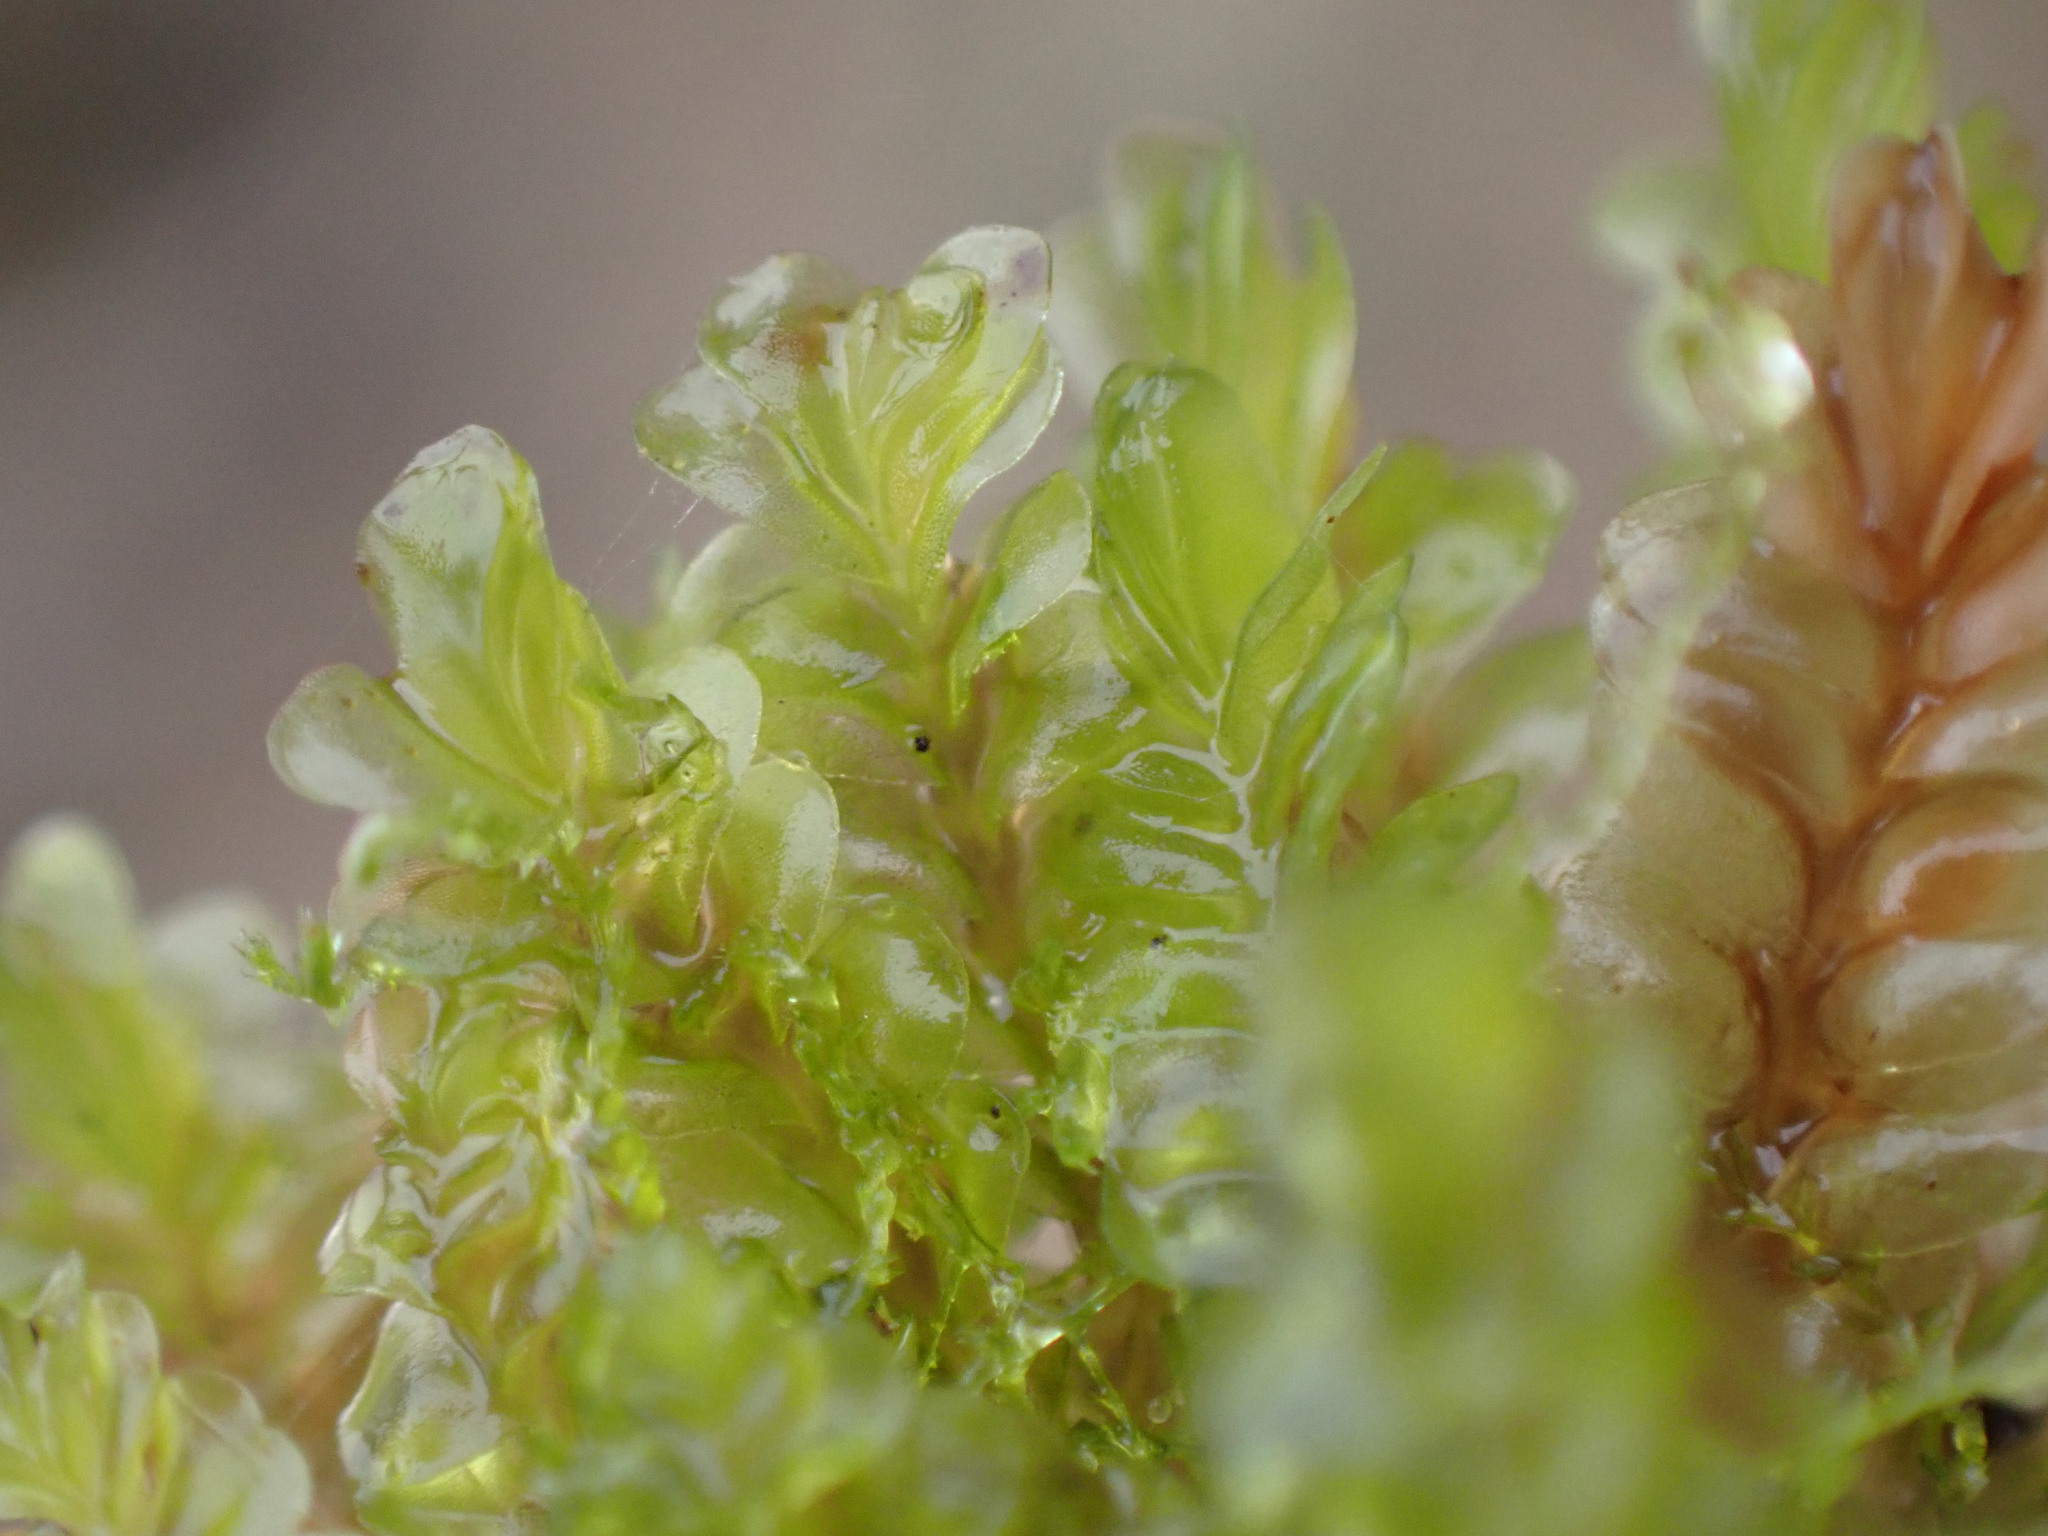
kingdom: Plantae
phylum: Marchantiophyta
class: Jungermanniopsida
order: Jungermanniales
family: Gyrothyraceae
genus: Gyrothyra
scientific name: Gyrothyra underwoodiana
